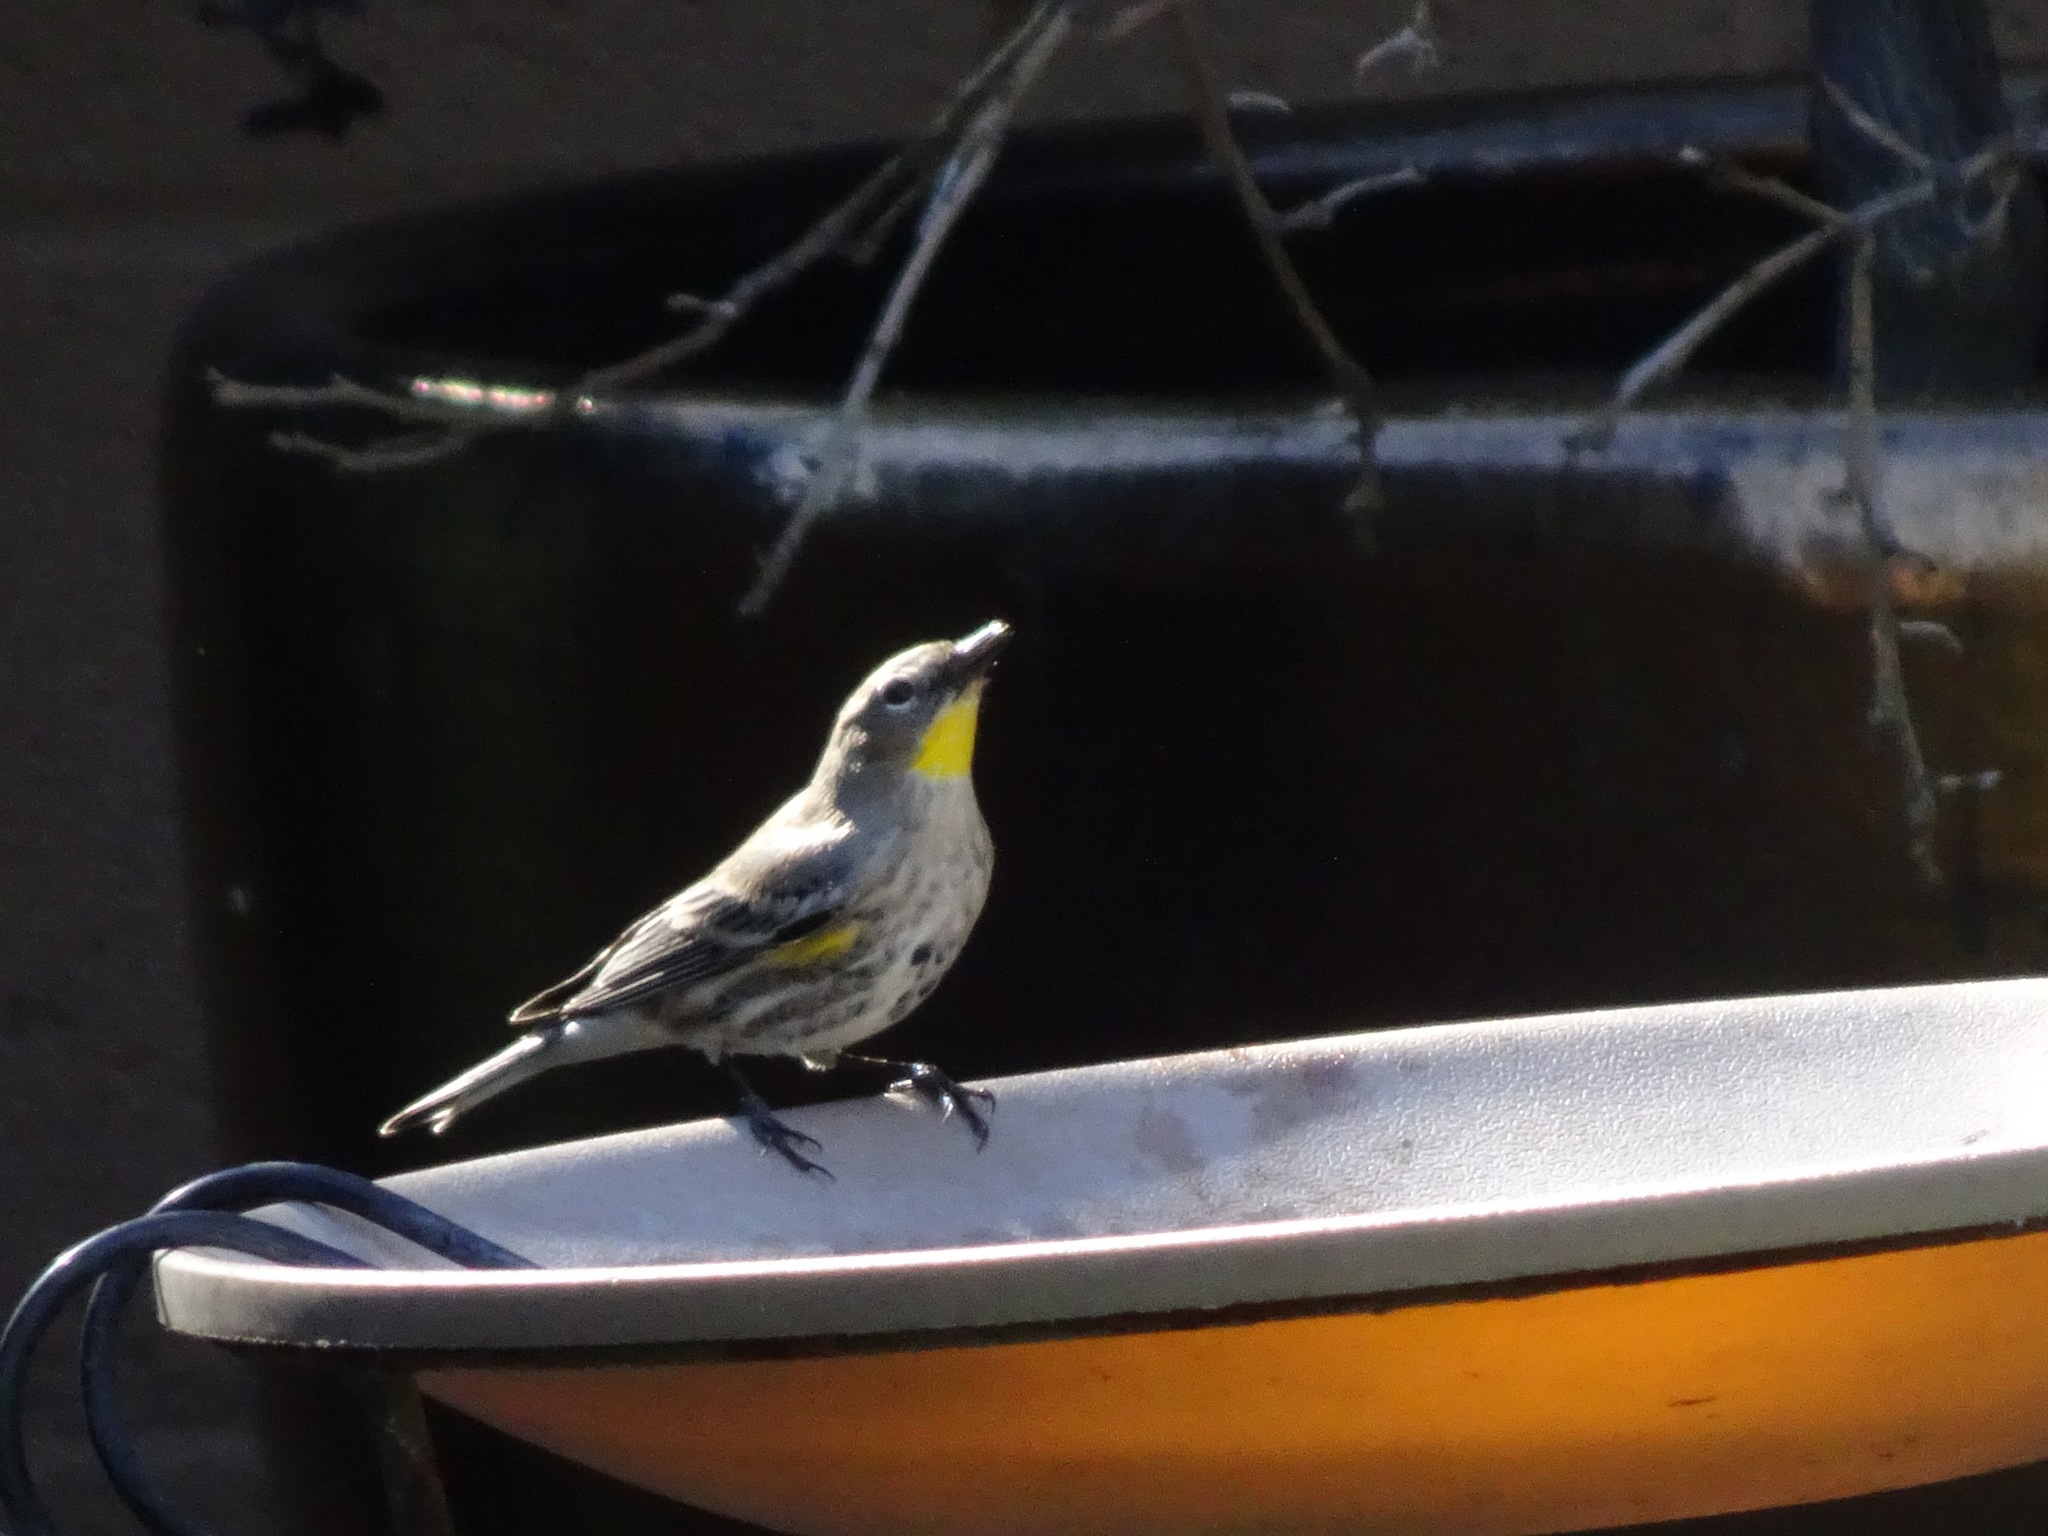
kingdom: Animalia
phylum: Chordata
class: Aves
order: Passeriformes
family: Parulidae
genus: Setophaga
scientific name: Setophaga coronata
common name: Myrtle warbler
